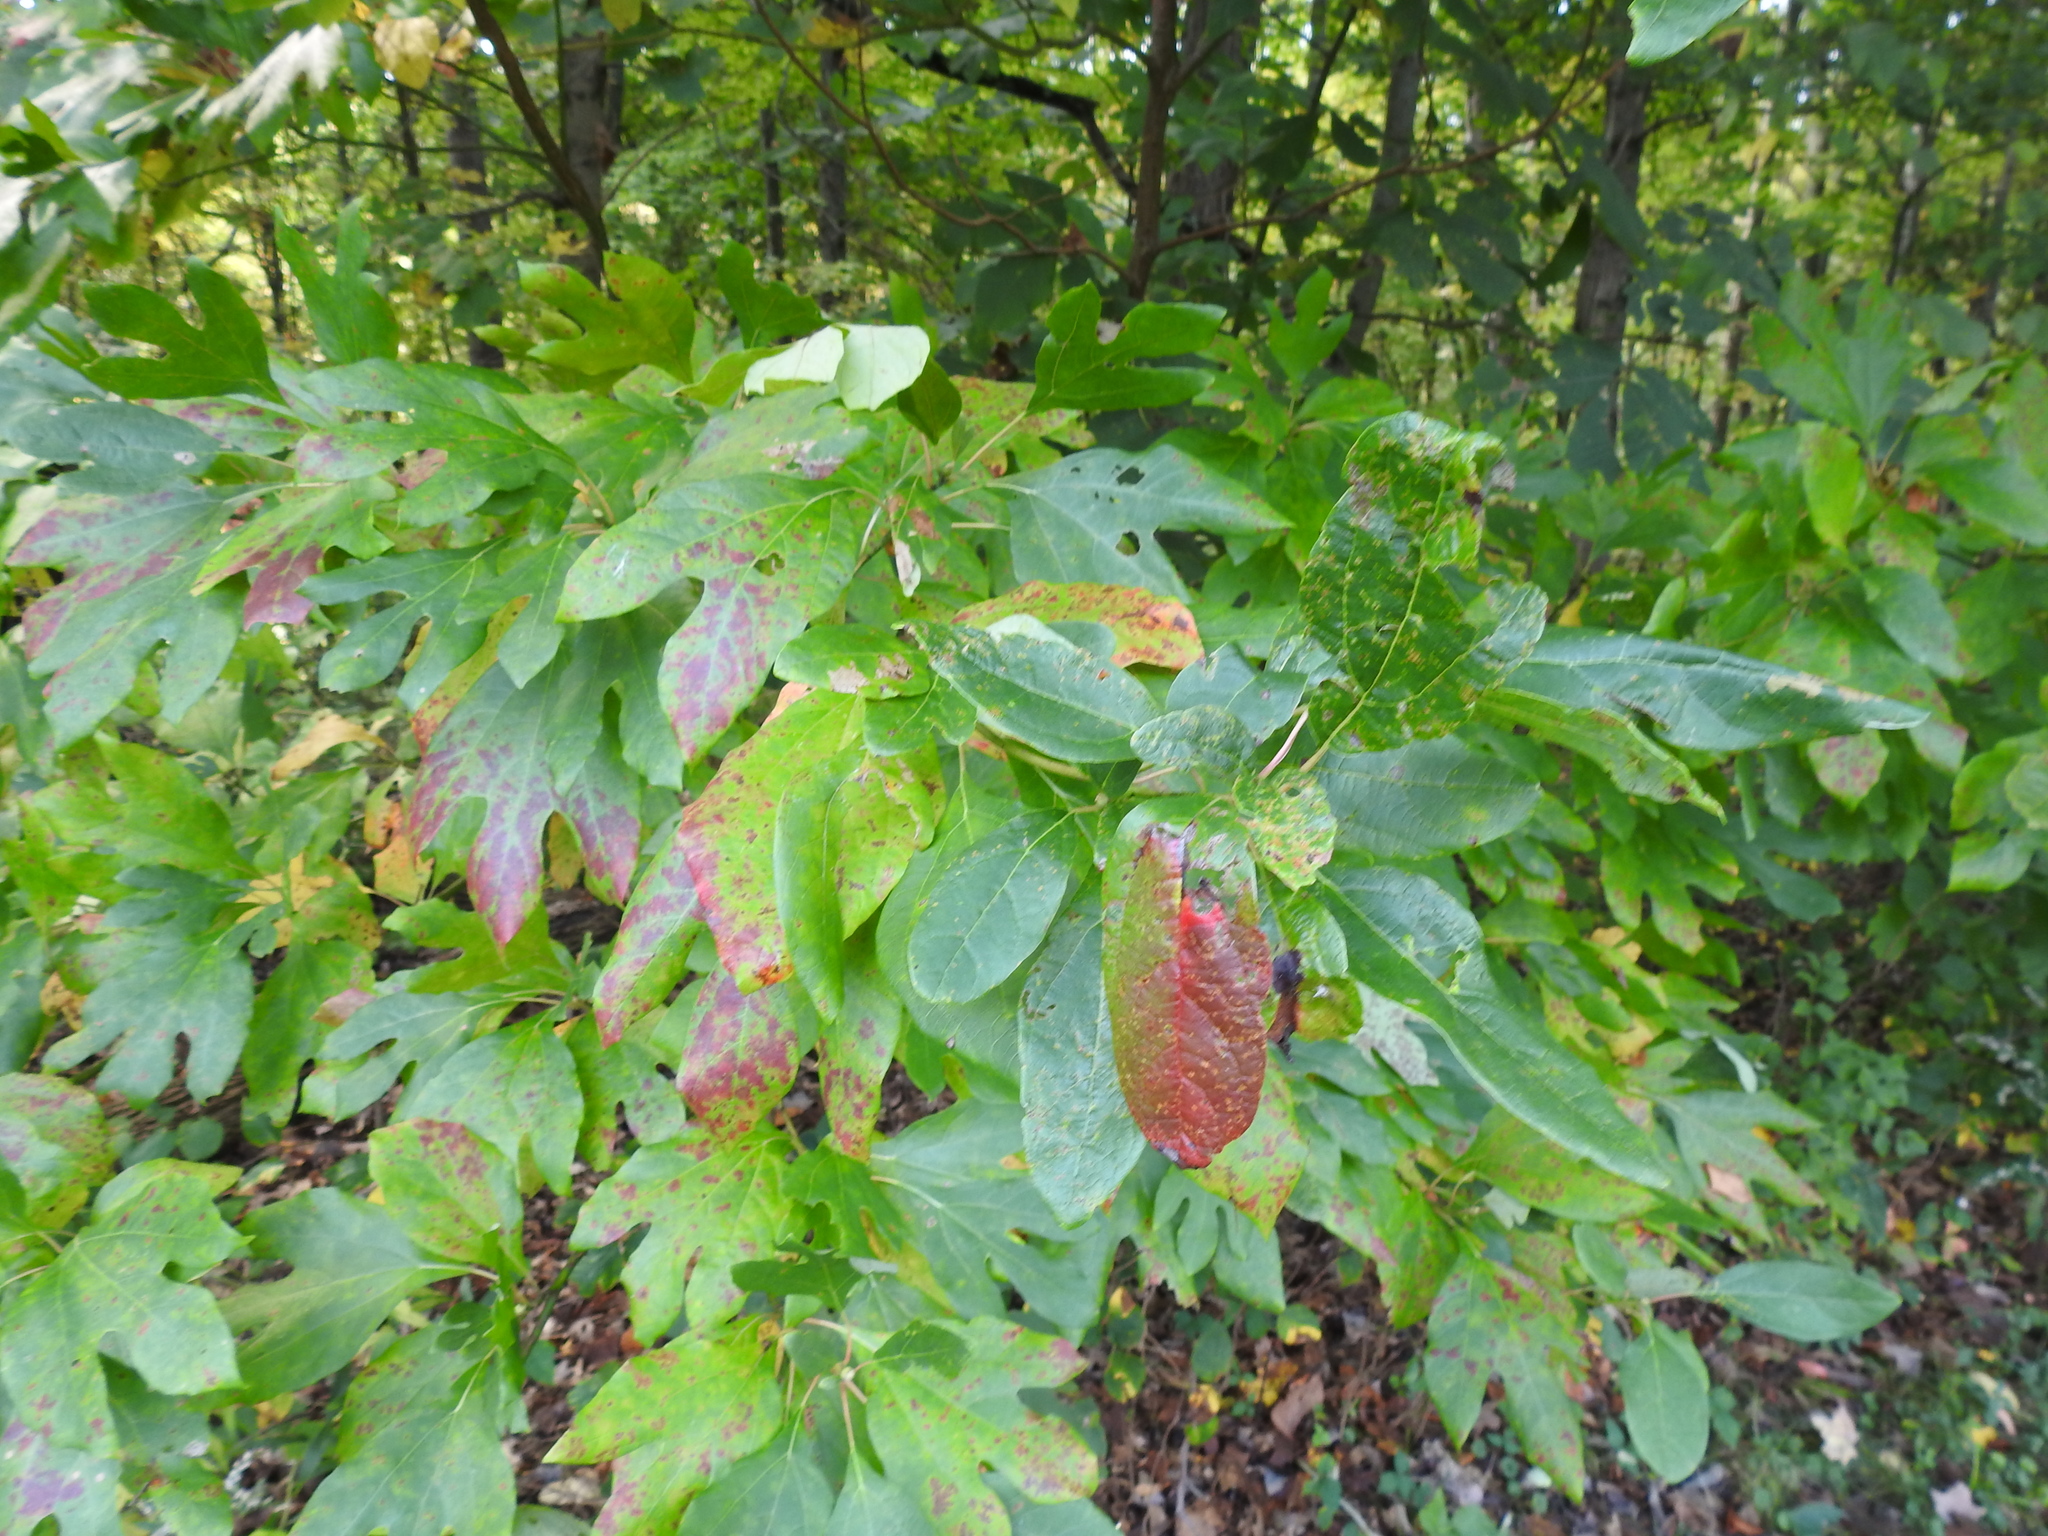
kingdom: Plantae
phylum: Tracheophyta
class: Magnoliopsida
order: Laurales
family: Lauraceae
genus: Sassafras
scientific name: Sassafras albidum
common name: Sassafras
